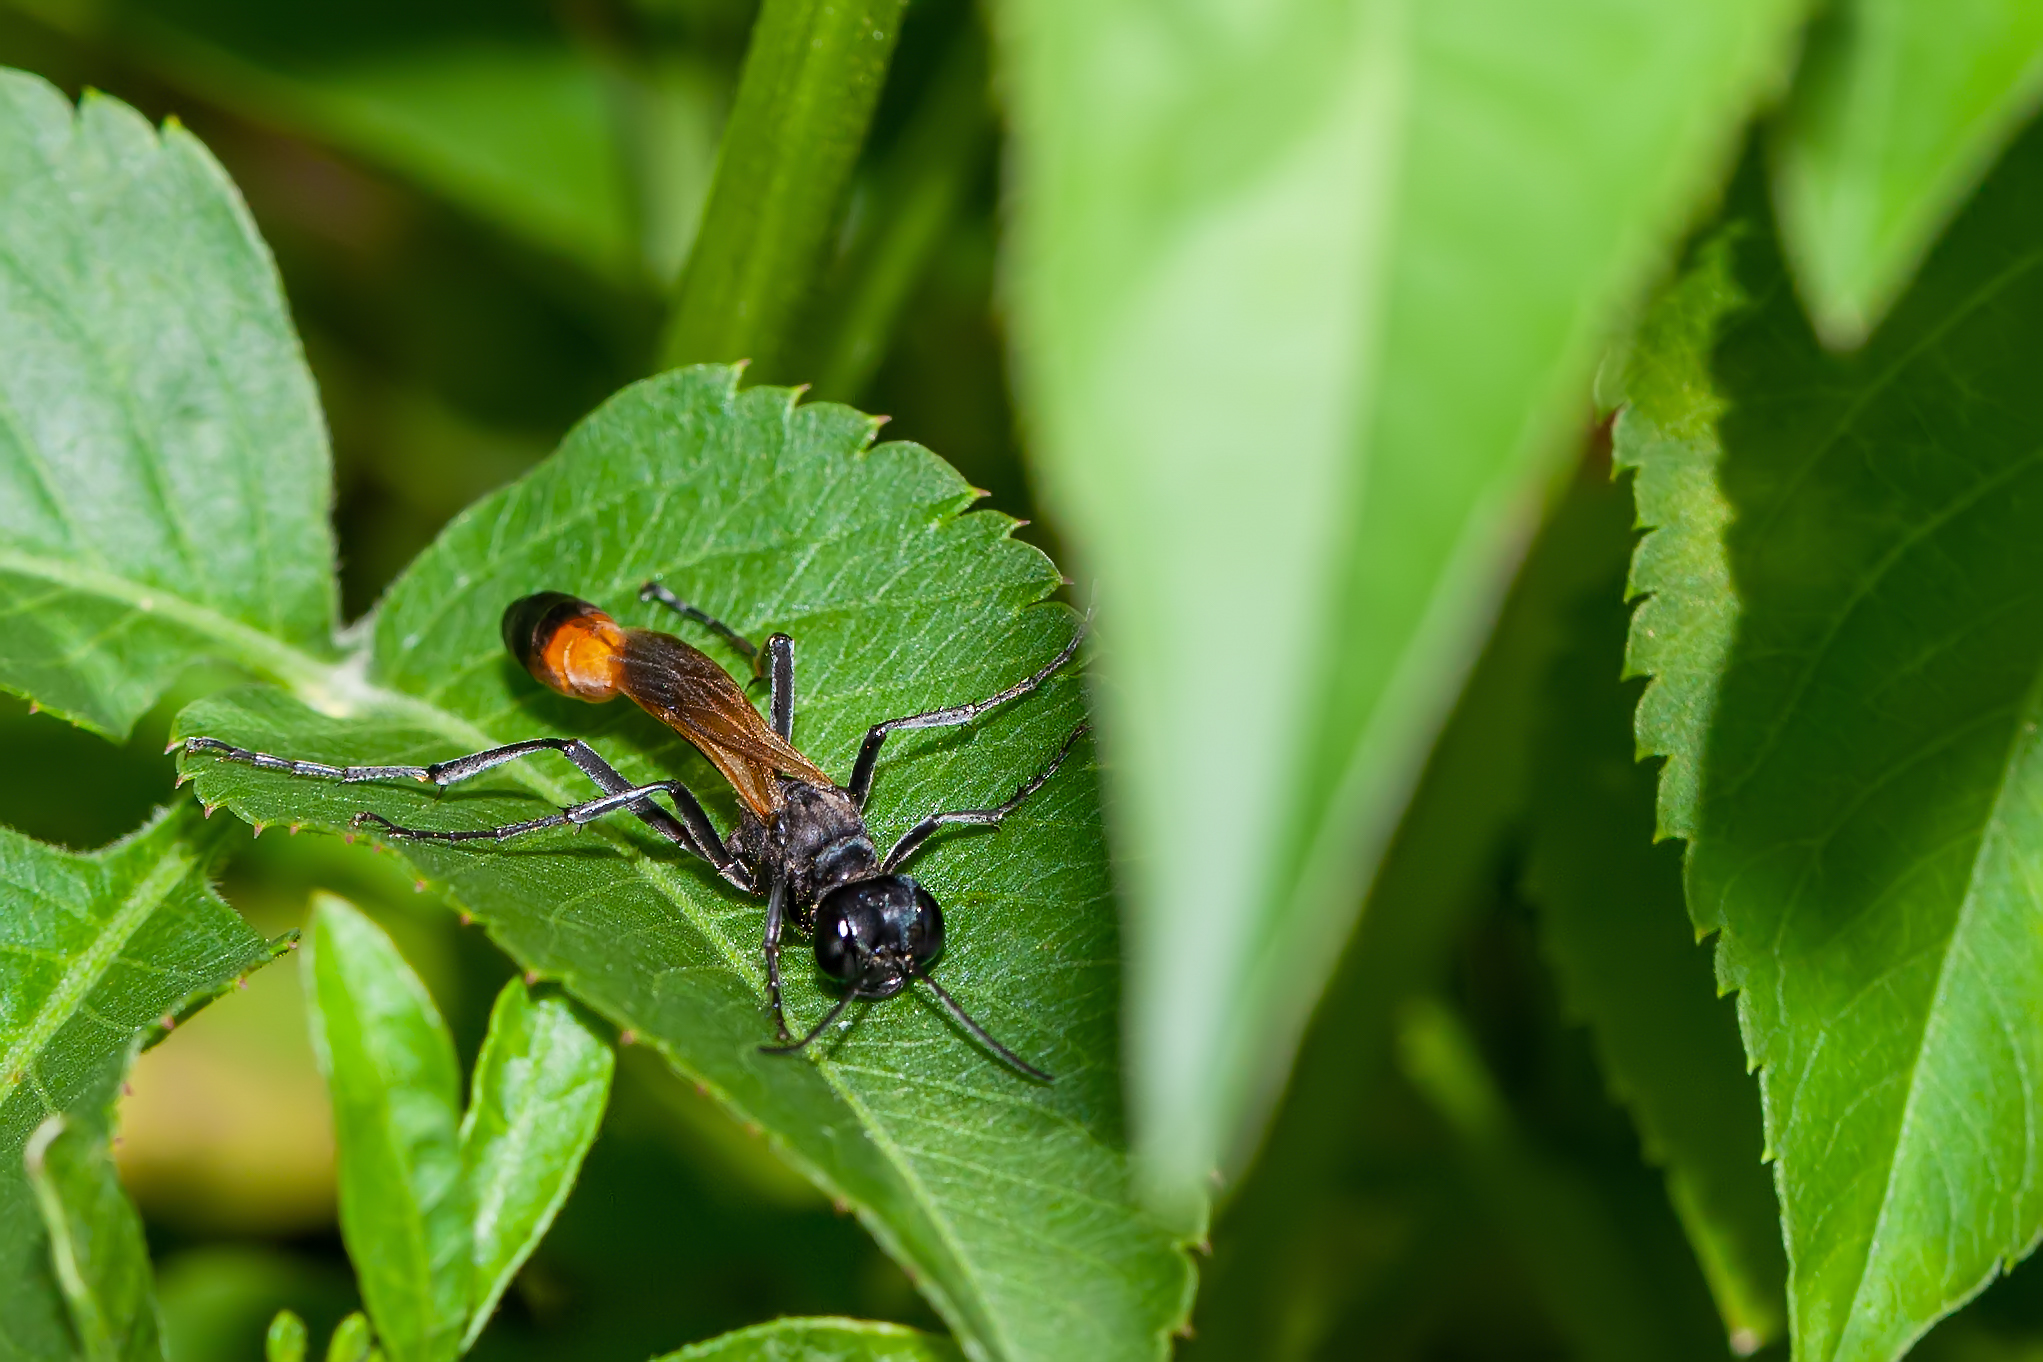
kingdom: Animalia
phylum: Arthropoda
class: Insecta
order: Hymenoptera
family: Sphecidae
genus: Ammophila
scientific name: Ammophila pictipennis
